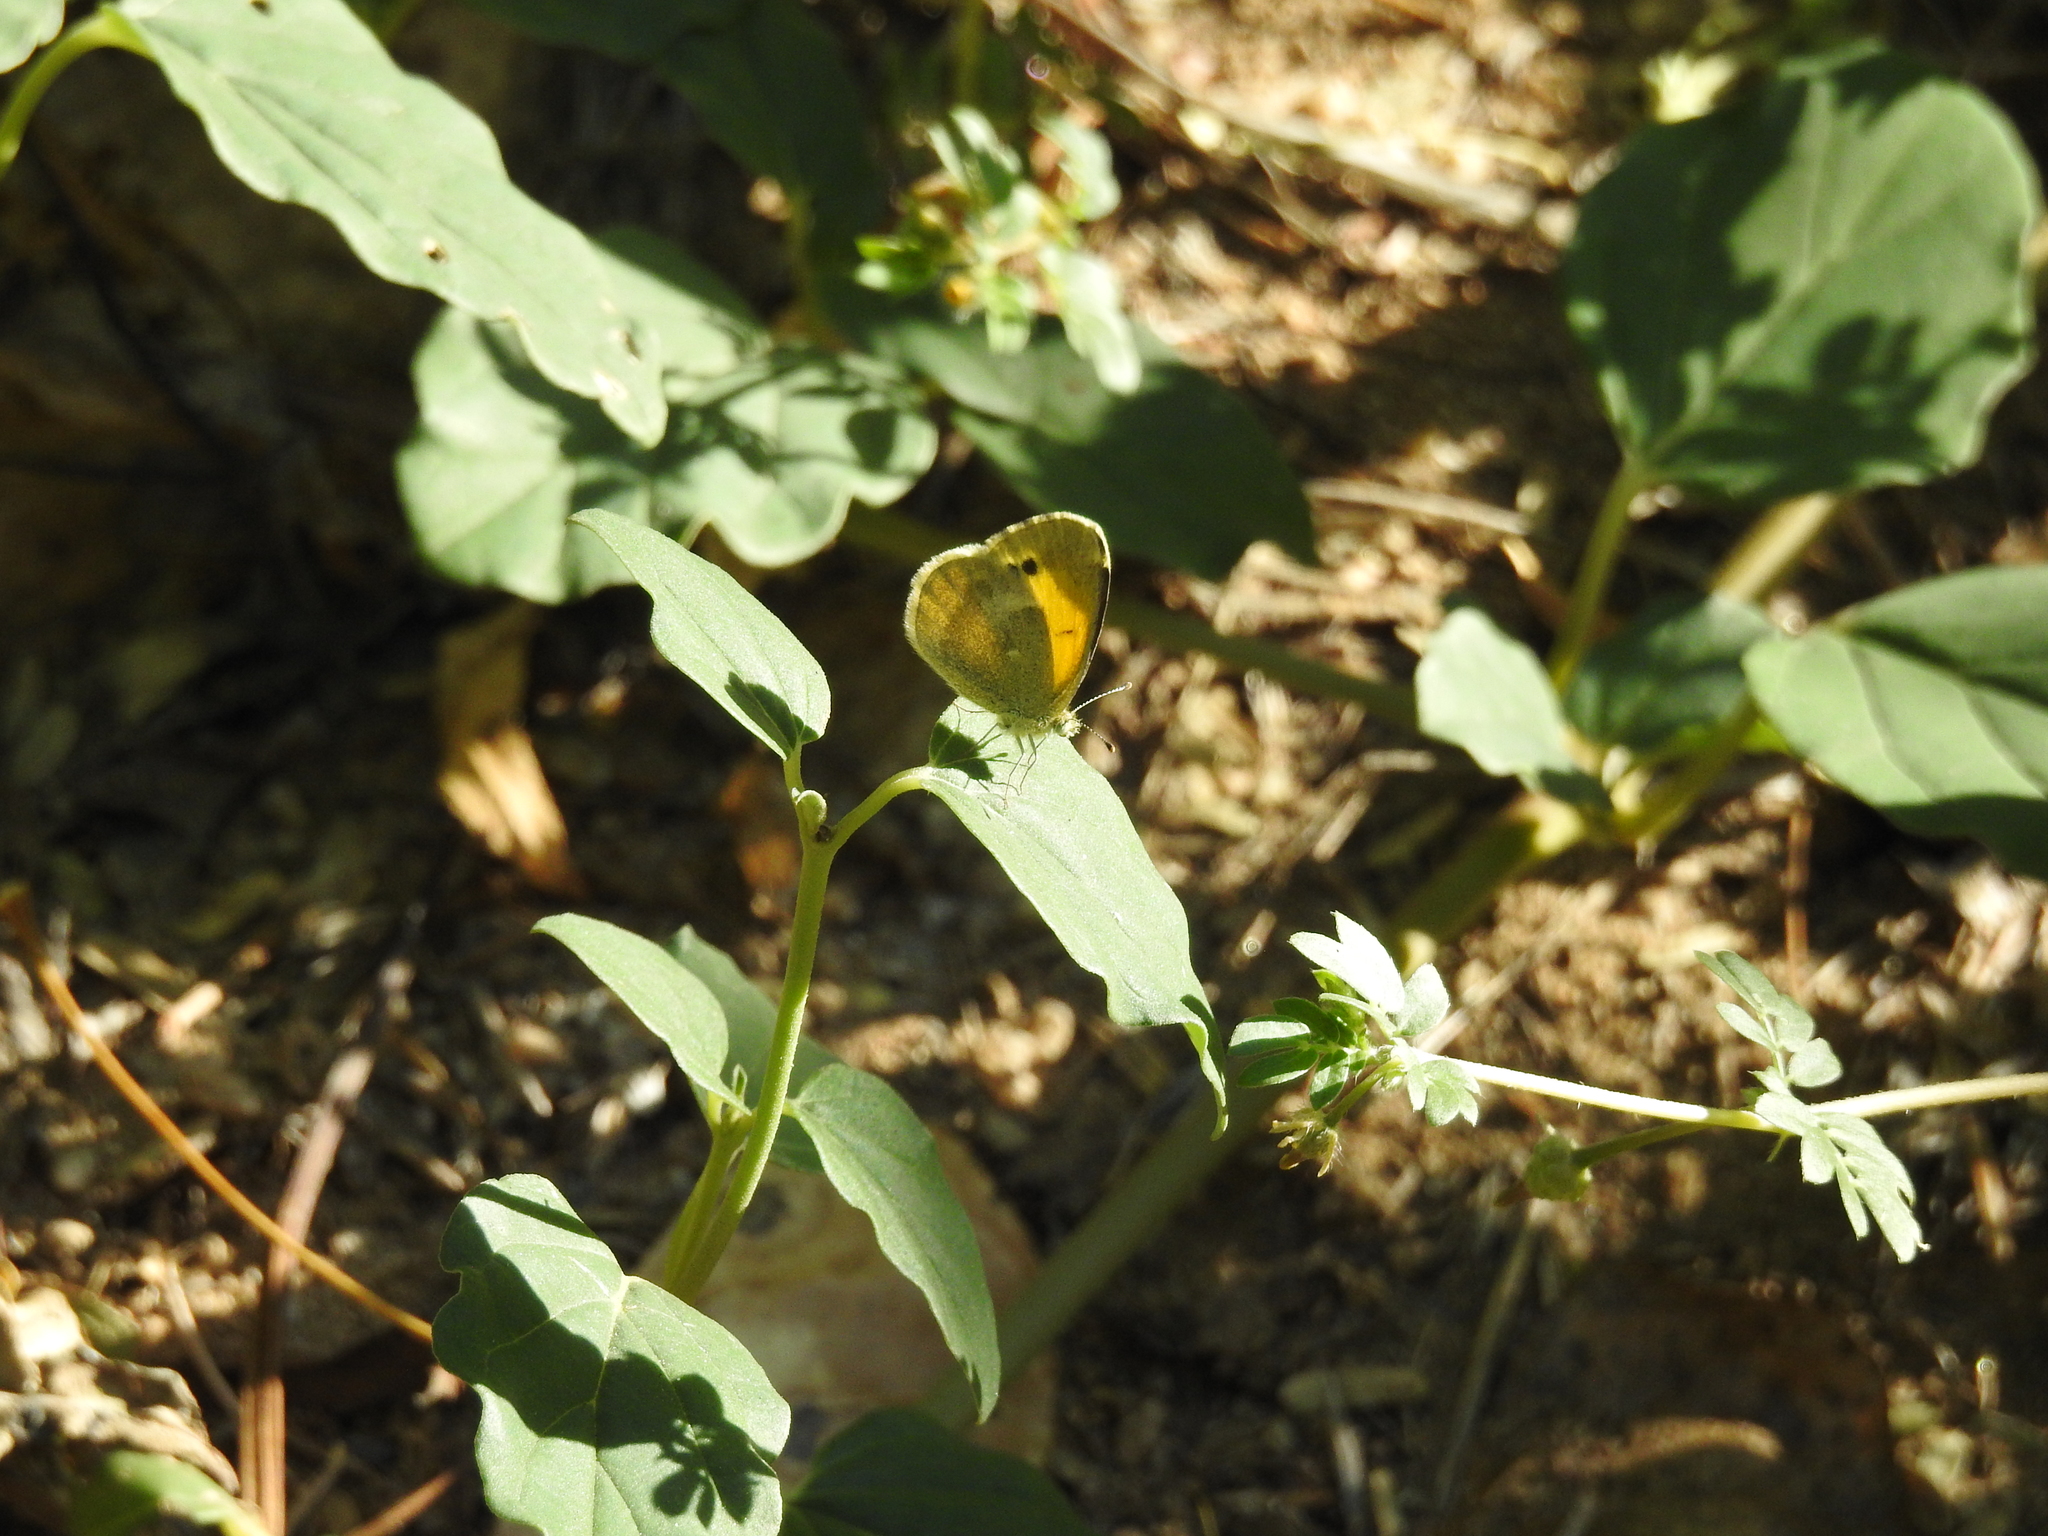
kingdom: Animalia
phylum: Arthropoda
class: Insecta
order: Lepidoptera
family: Pieridae
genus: Nathalis
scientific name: Nathalis iole
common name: Dainty sulphur
